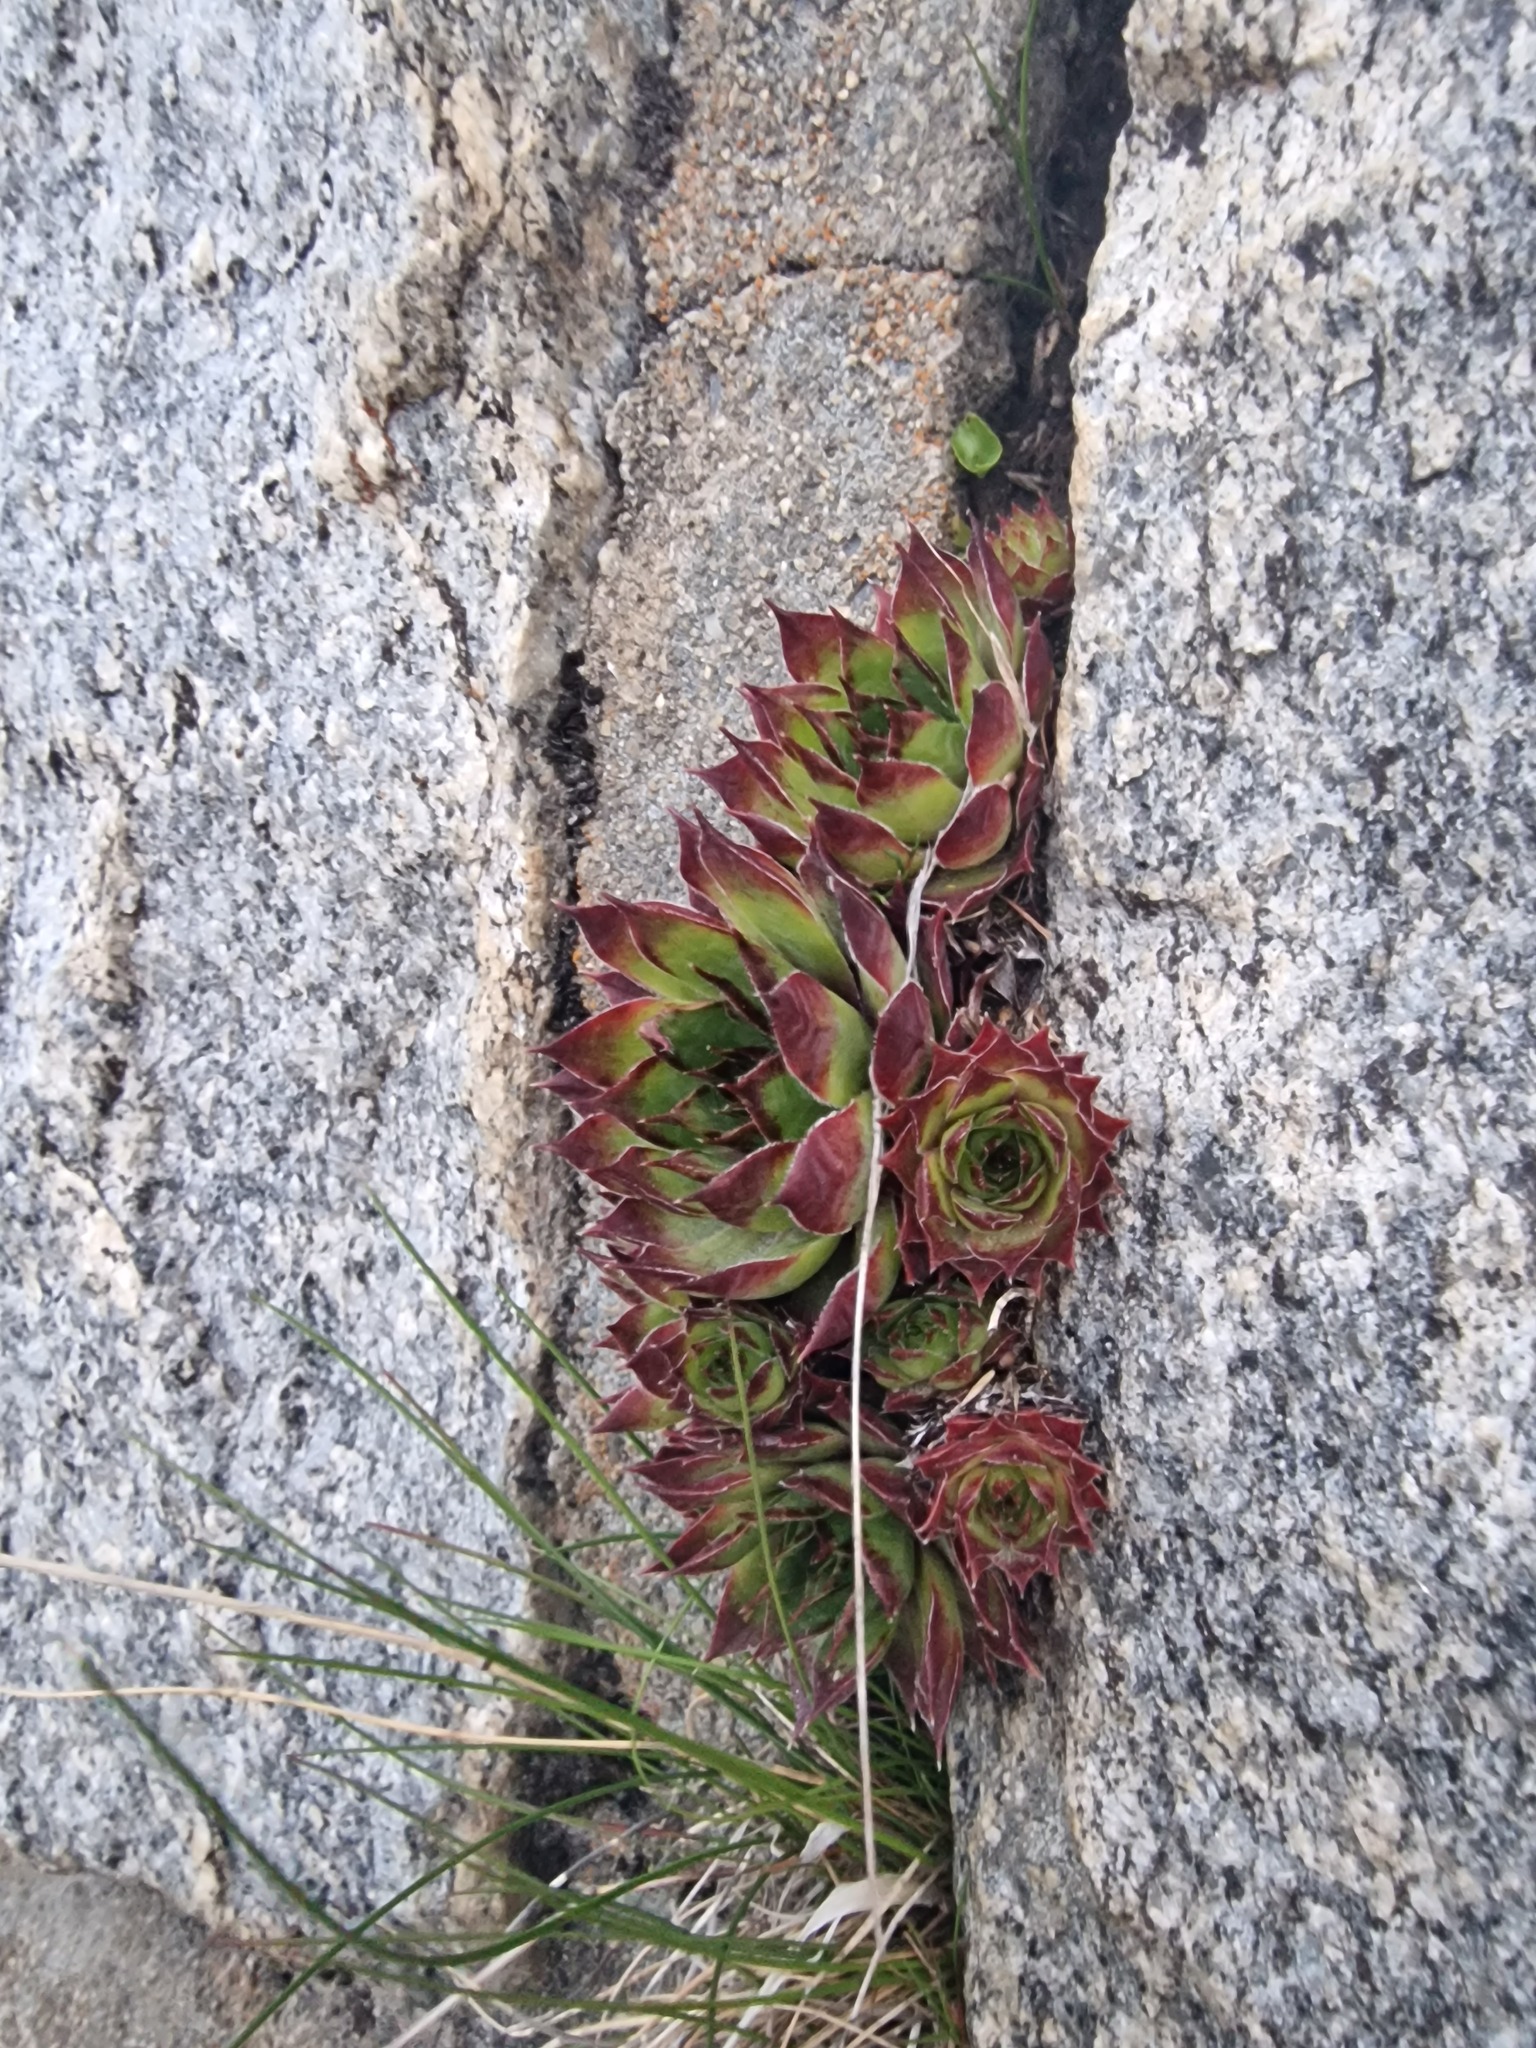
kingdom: Plantae
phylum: Tracheophyta
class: Magnoliopsida
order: Saxifragales
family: Crassulaceae
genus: Sempervivum
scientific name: Sempervivum tectorum
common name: House-leek
